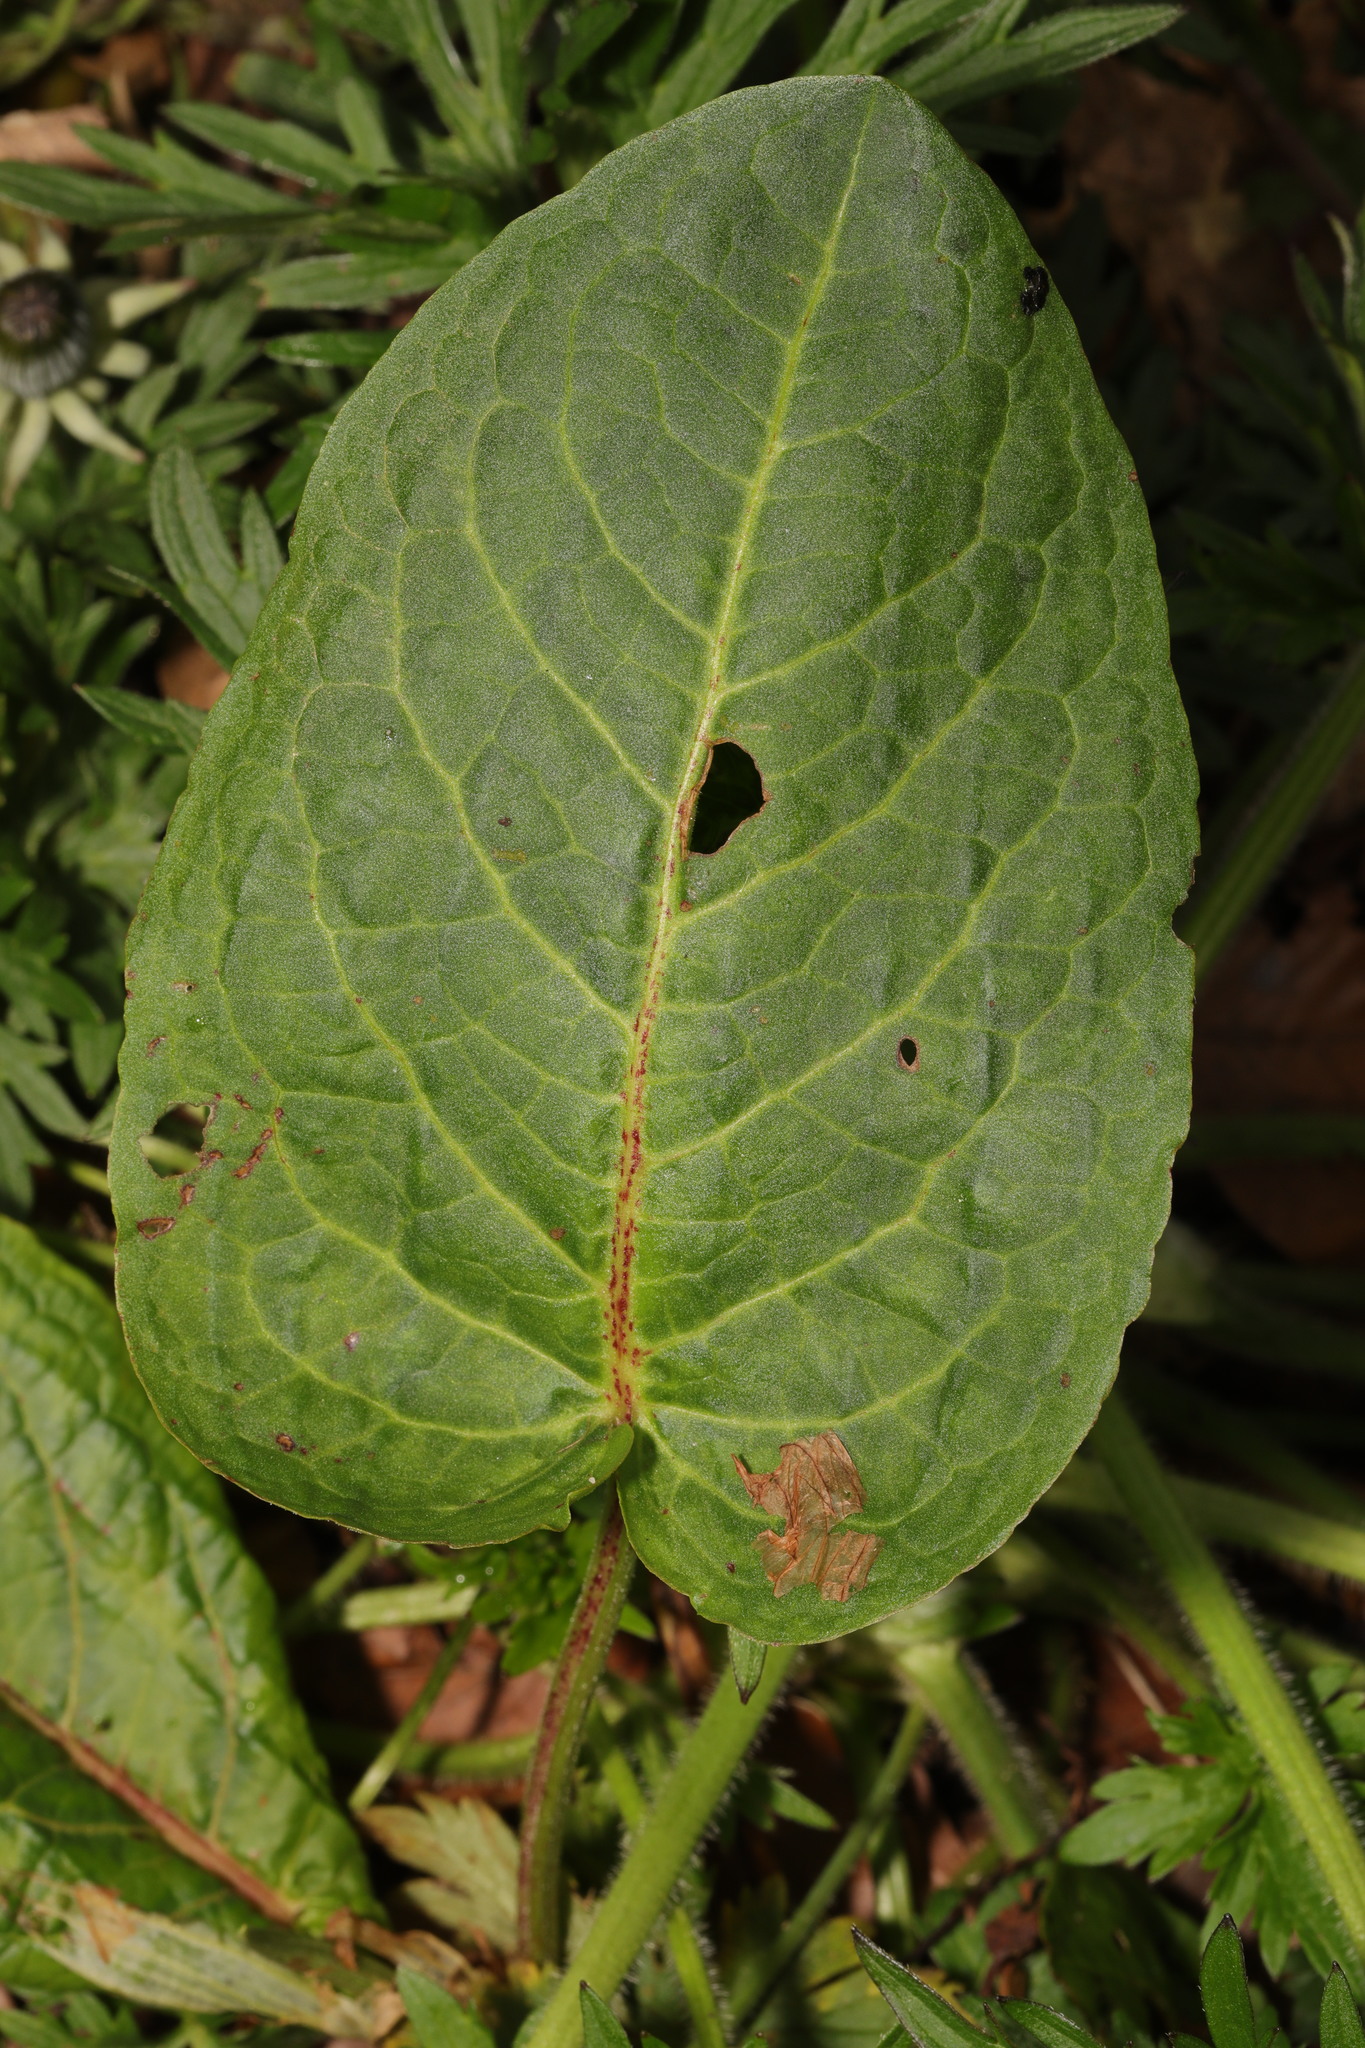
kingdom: Plantae
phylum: Tracheophyta
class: Magnoliopsida
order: Caryophyllales
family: Polygonaceae
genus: Rumex
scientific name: Rumex obtusifolius
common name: Bitter dock
